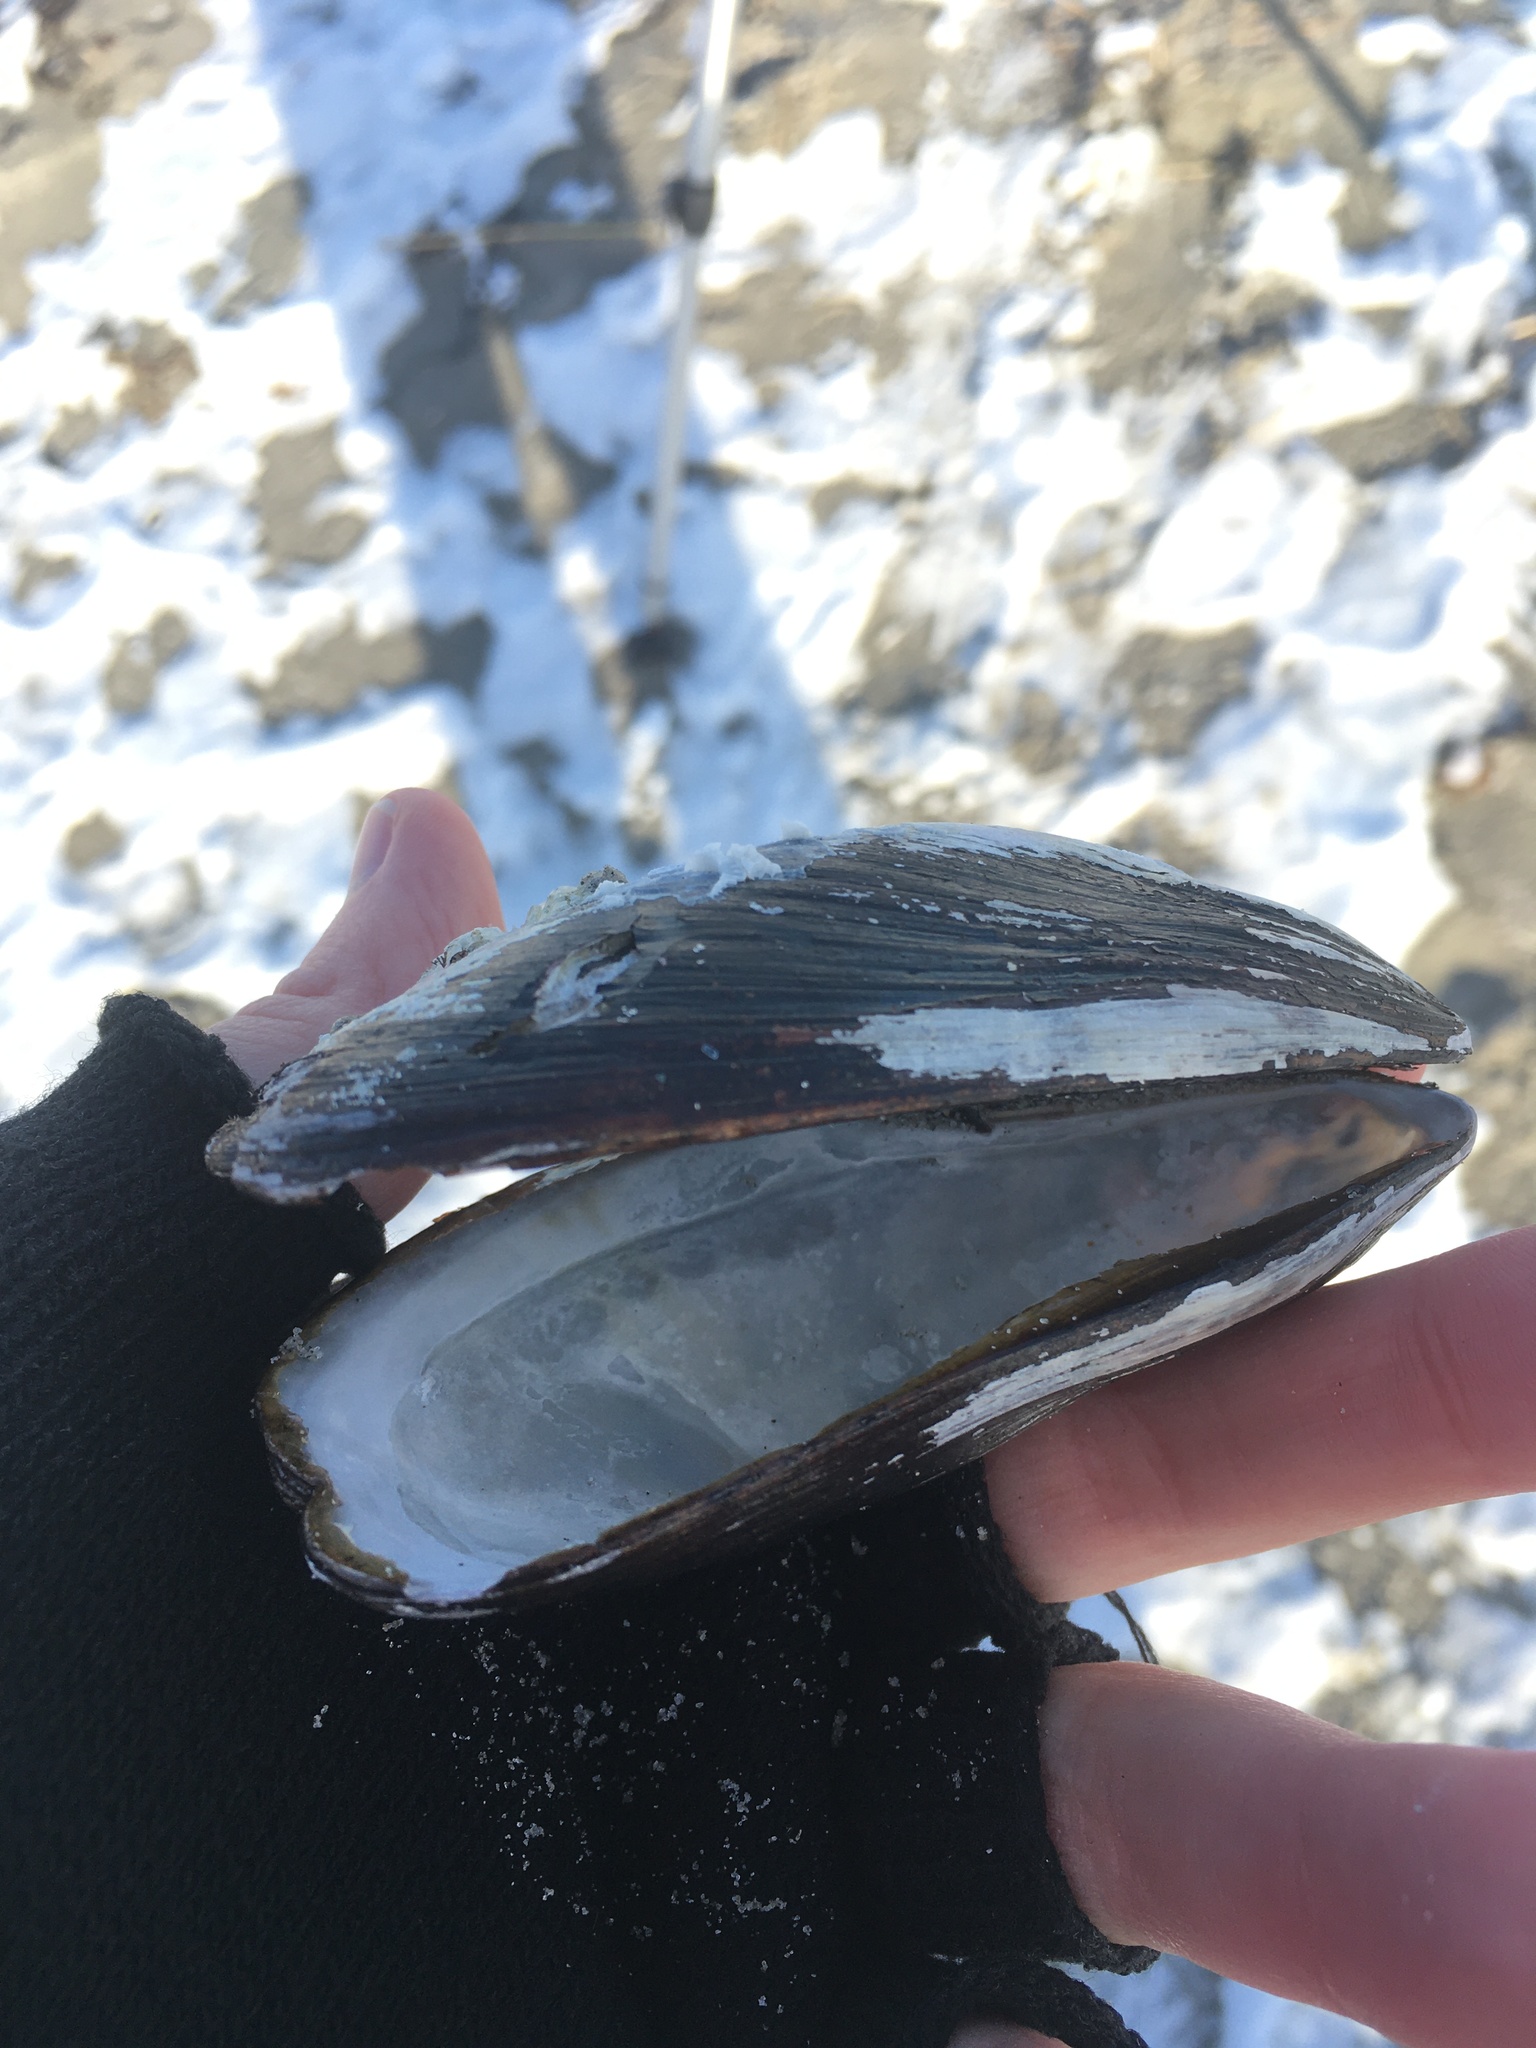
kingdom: Animalia
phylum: Mollusca
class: Bivalvia
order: Mytilida
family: Mytilidae
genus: Modiolus
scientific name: Modiolus modiolus
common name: Horse-mussel
